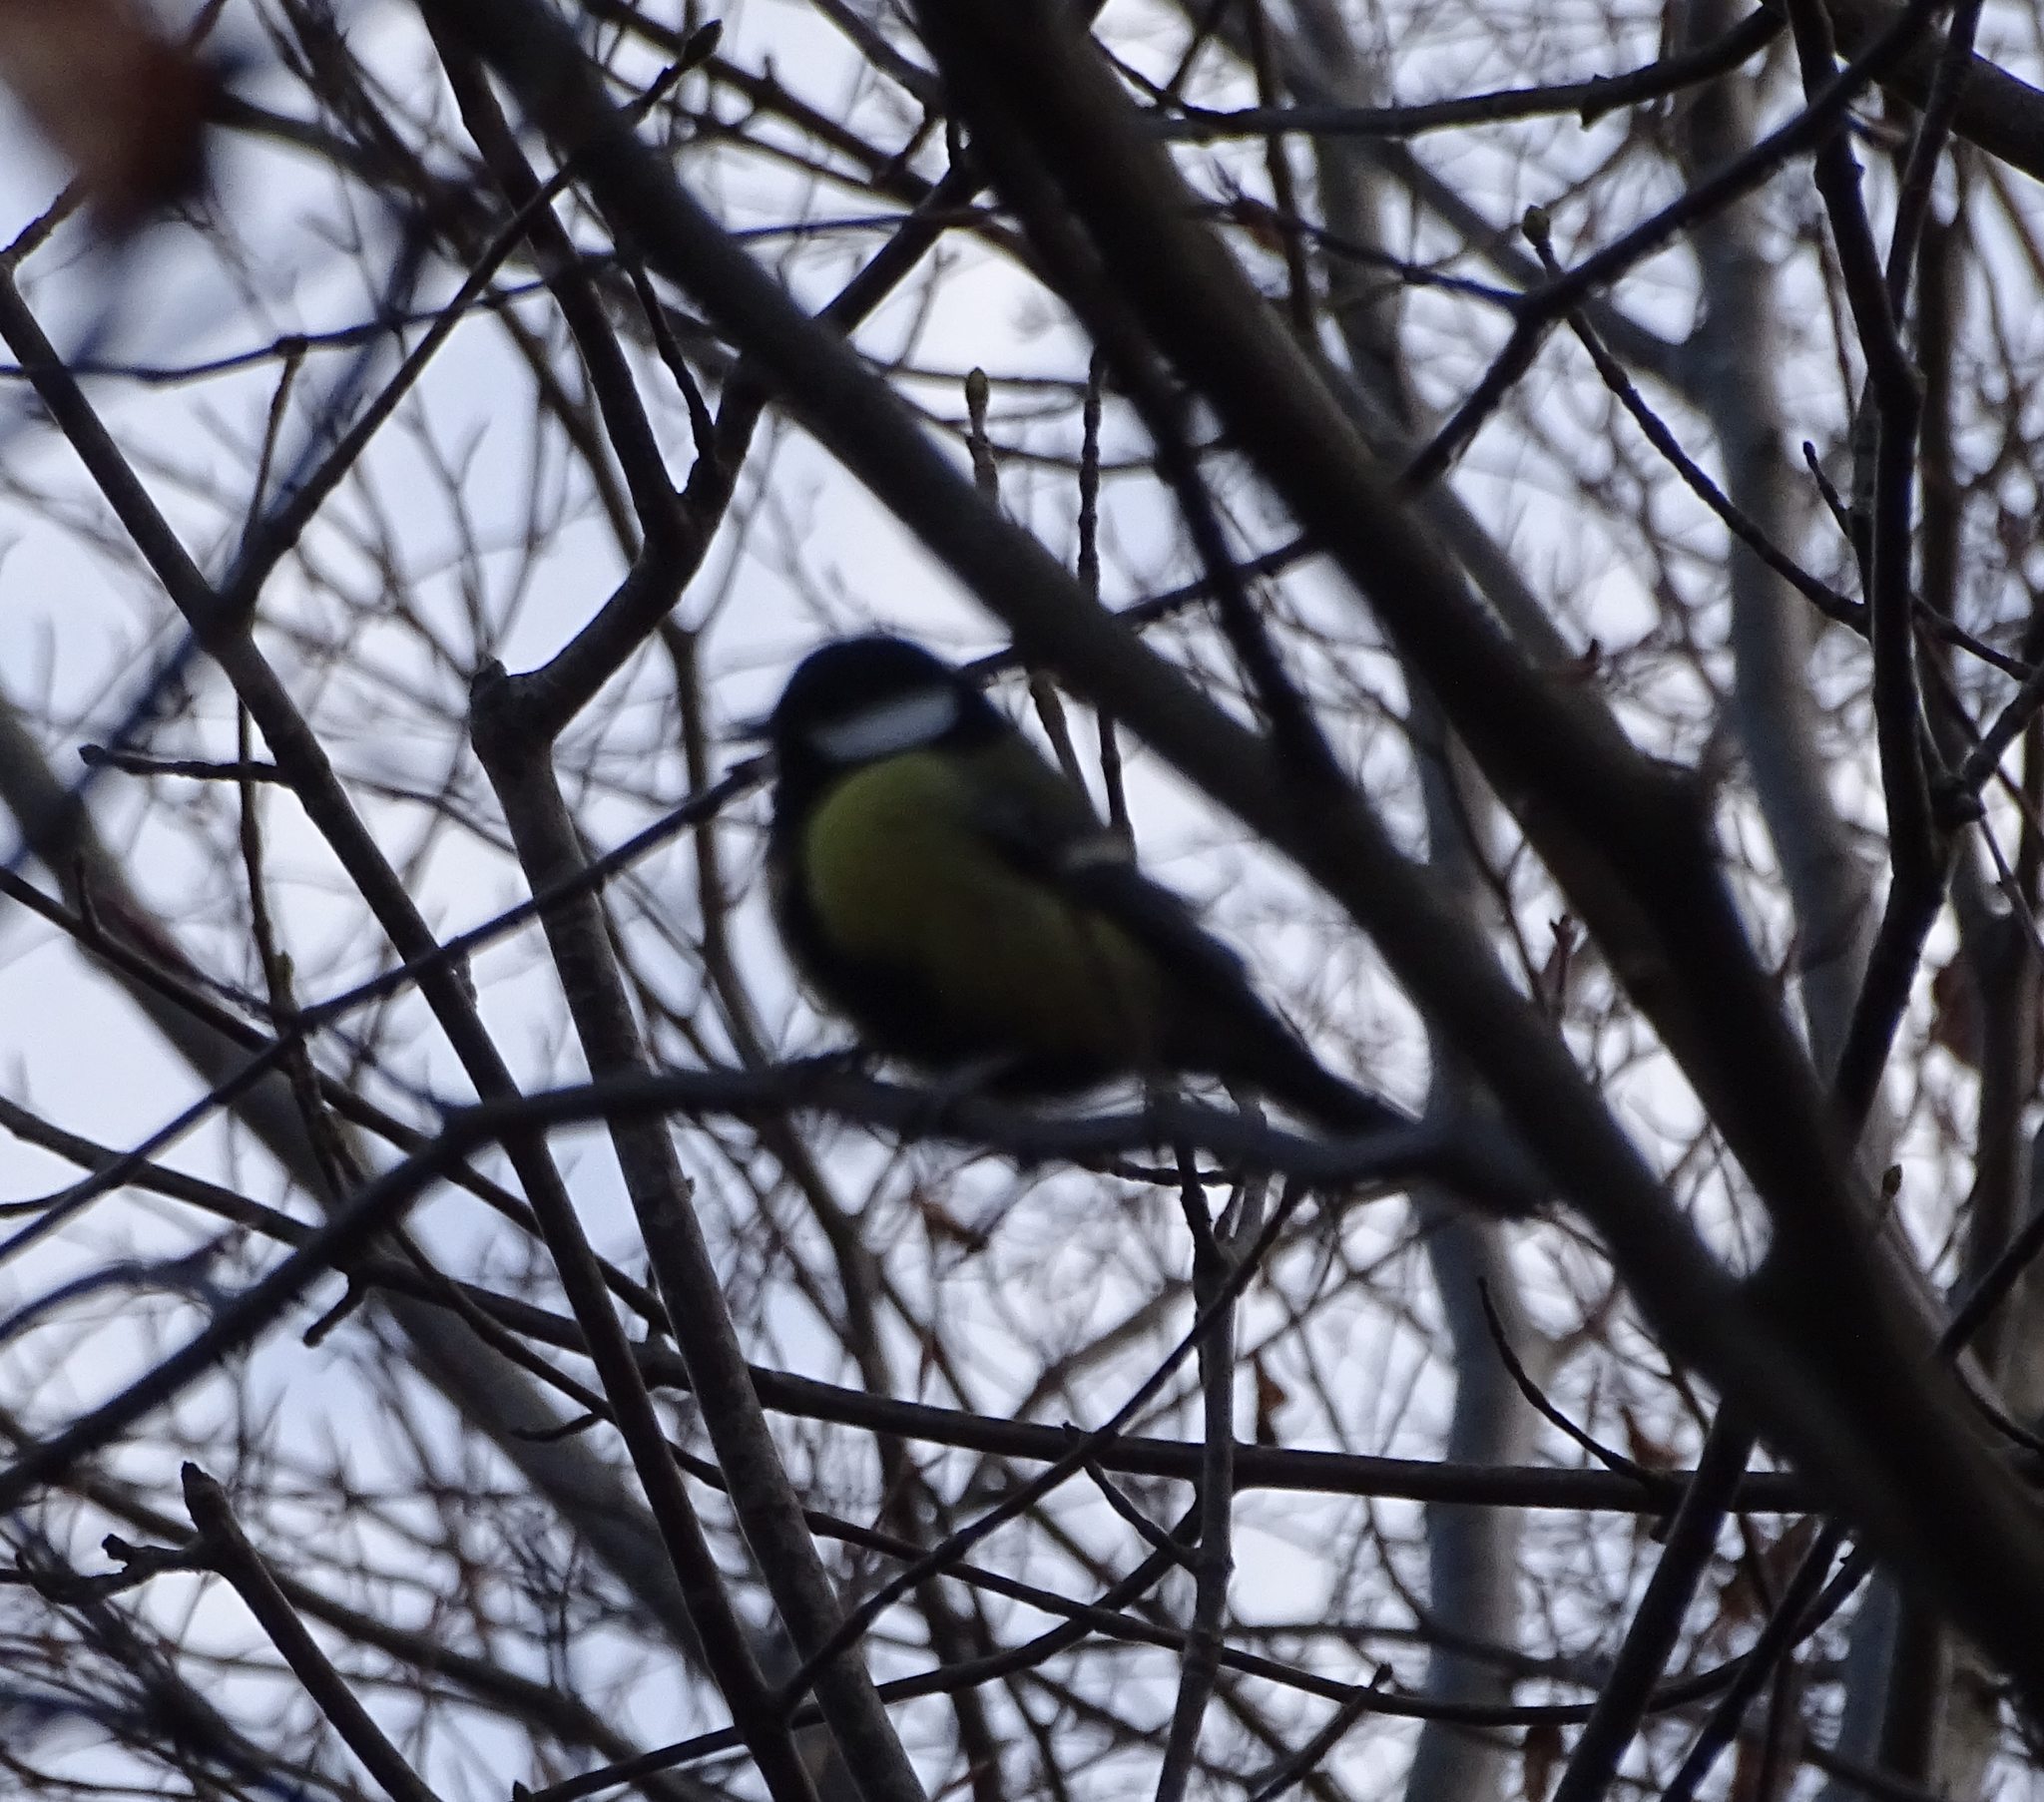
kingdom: Animalia
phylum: Chordata
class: Aves
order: Passeriformes
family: Paridae
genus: Parus
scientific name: Parus major
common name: Great tit
